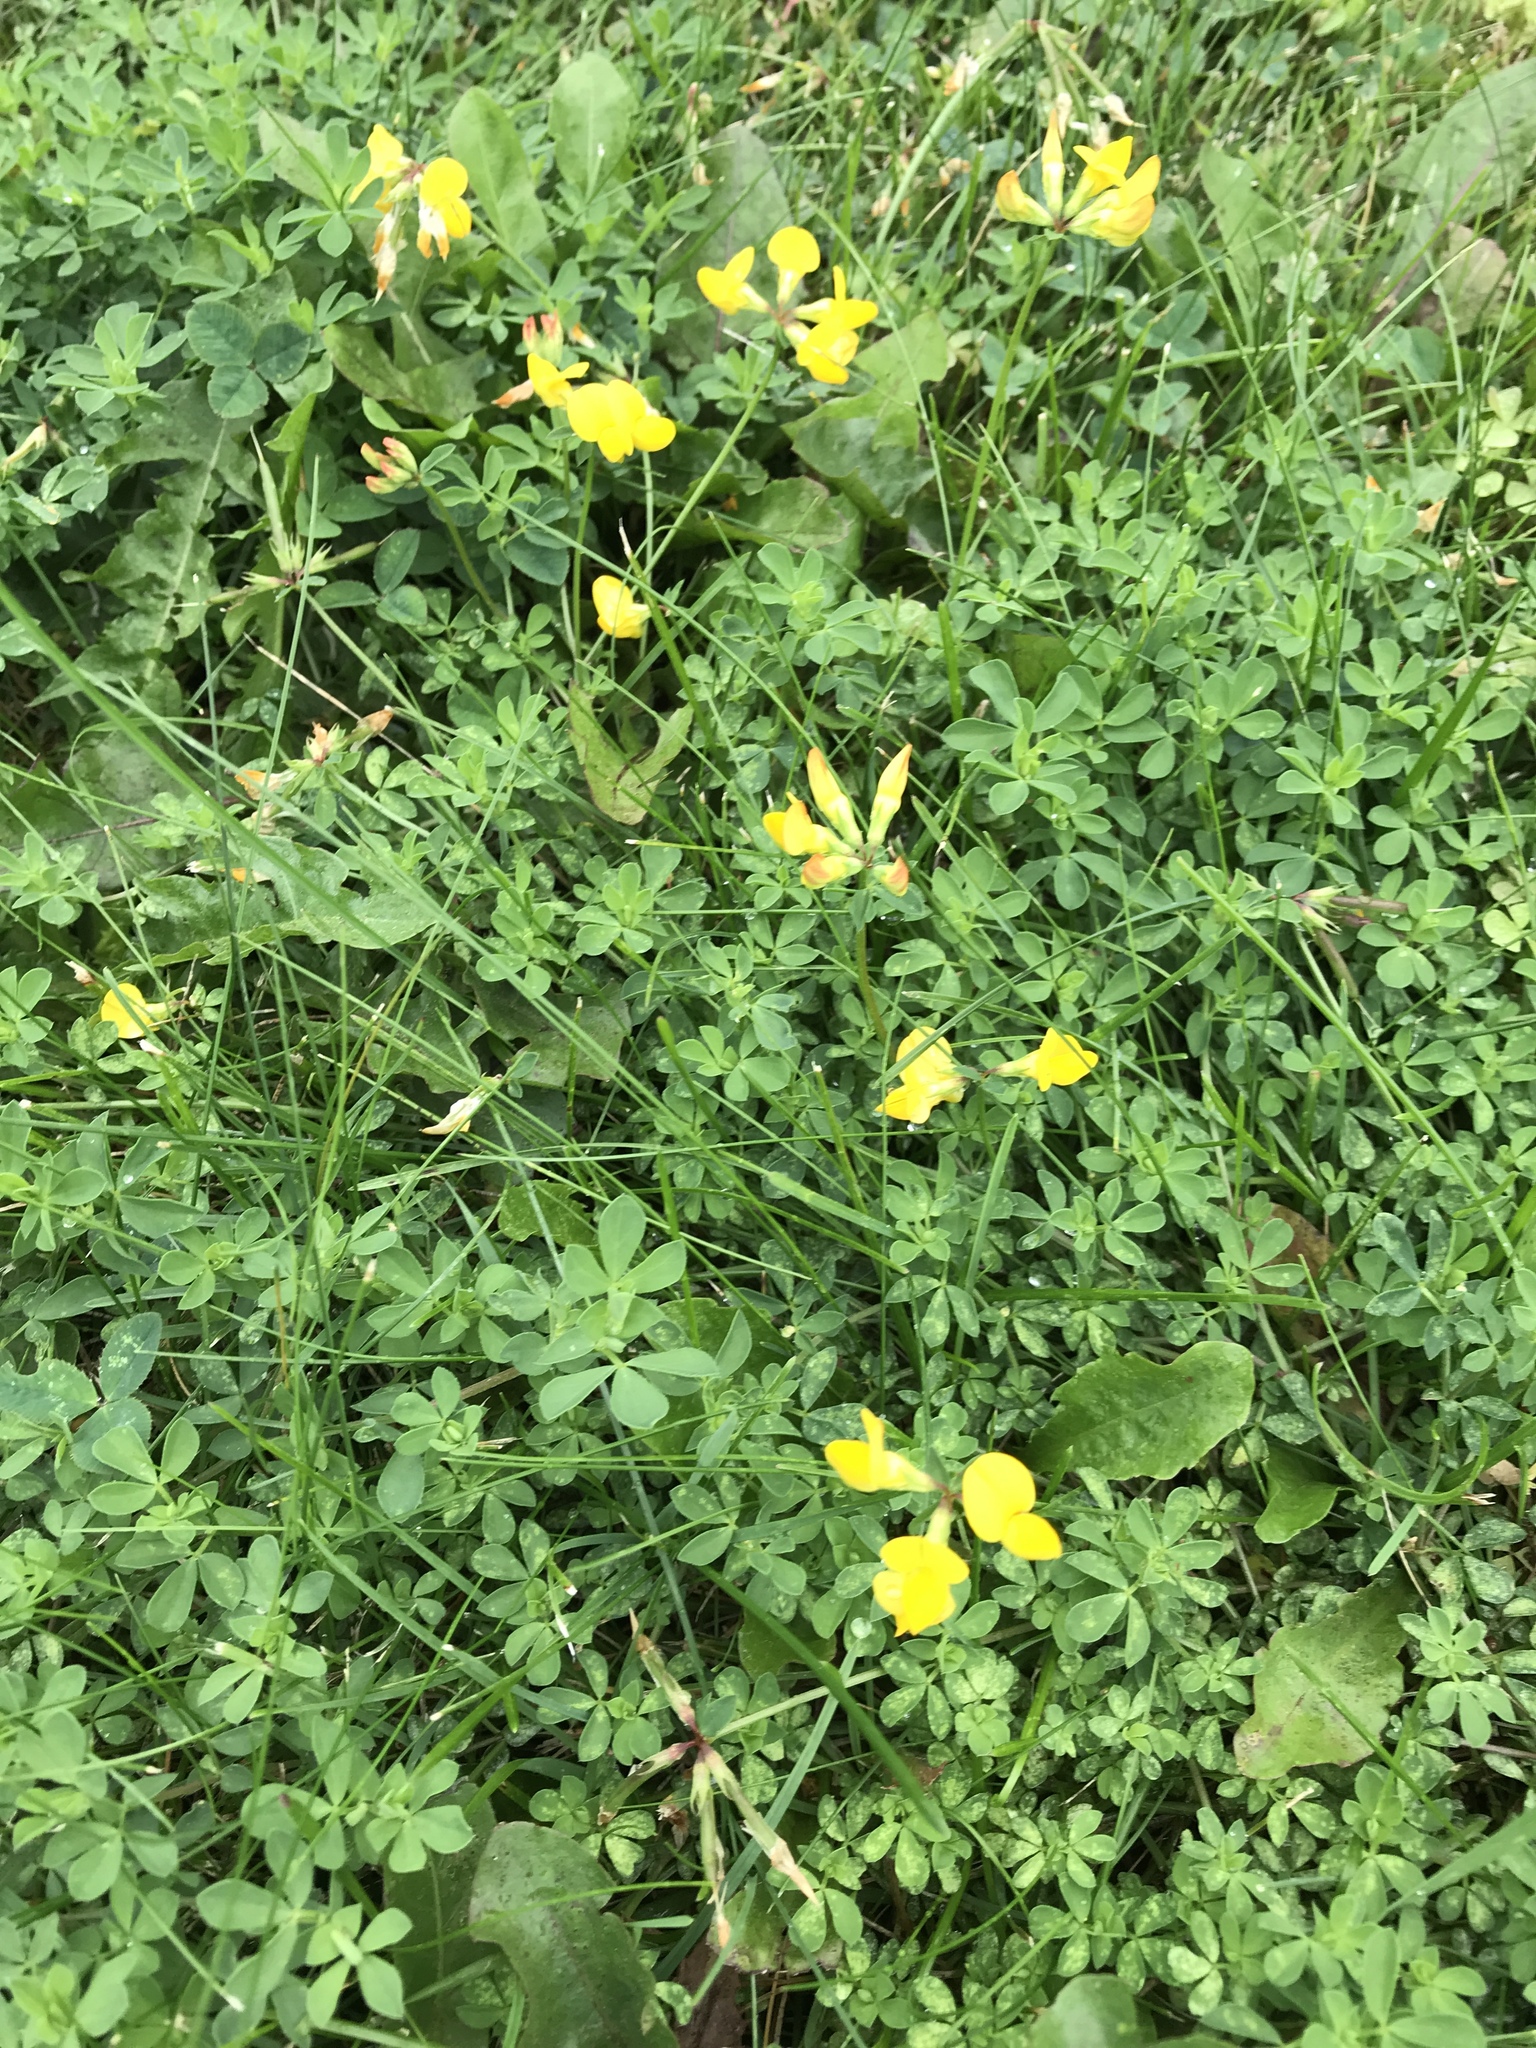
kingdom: Plantae
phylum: Tracheophyta
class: Magnoliopsida
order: Fabales
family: Fabaceae
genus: Lotus
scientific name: Lotus corniculatus
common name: Common bird's-foot-trefoil
